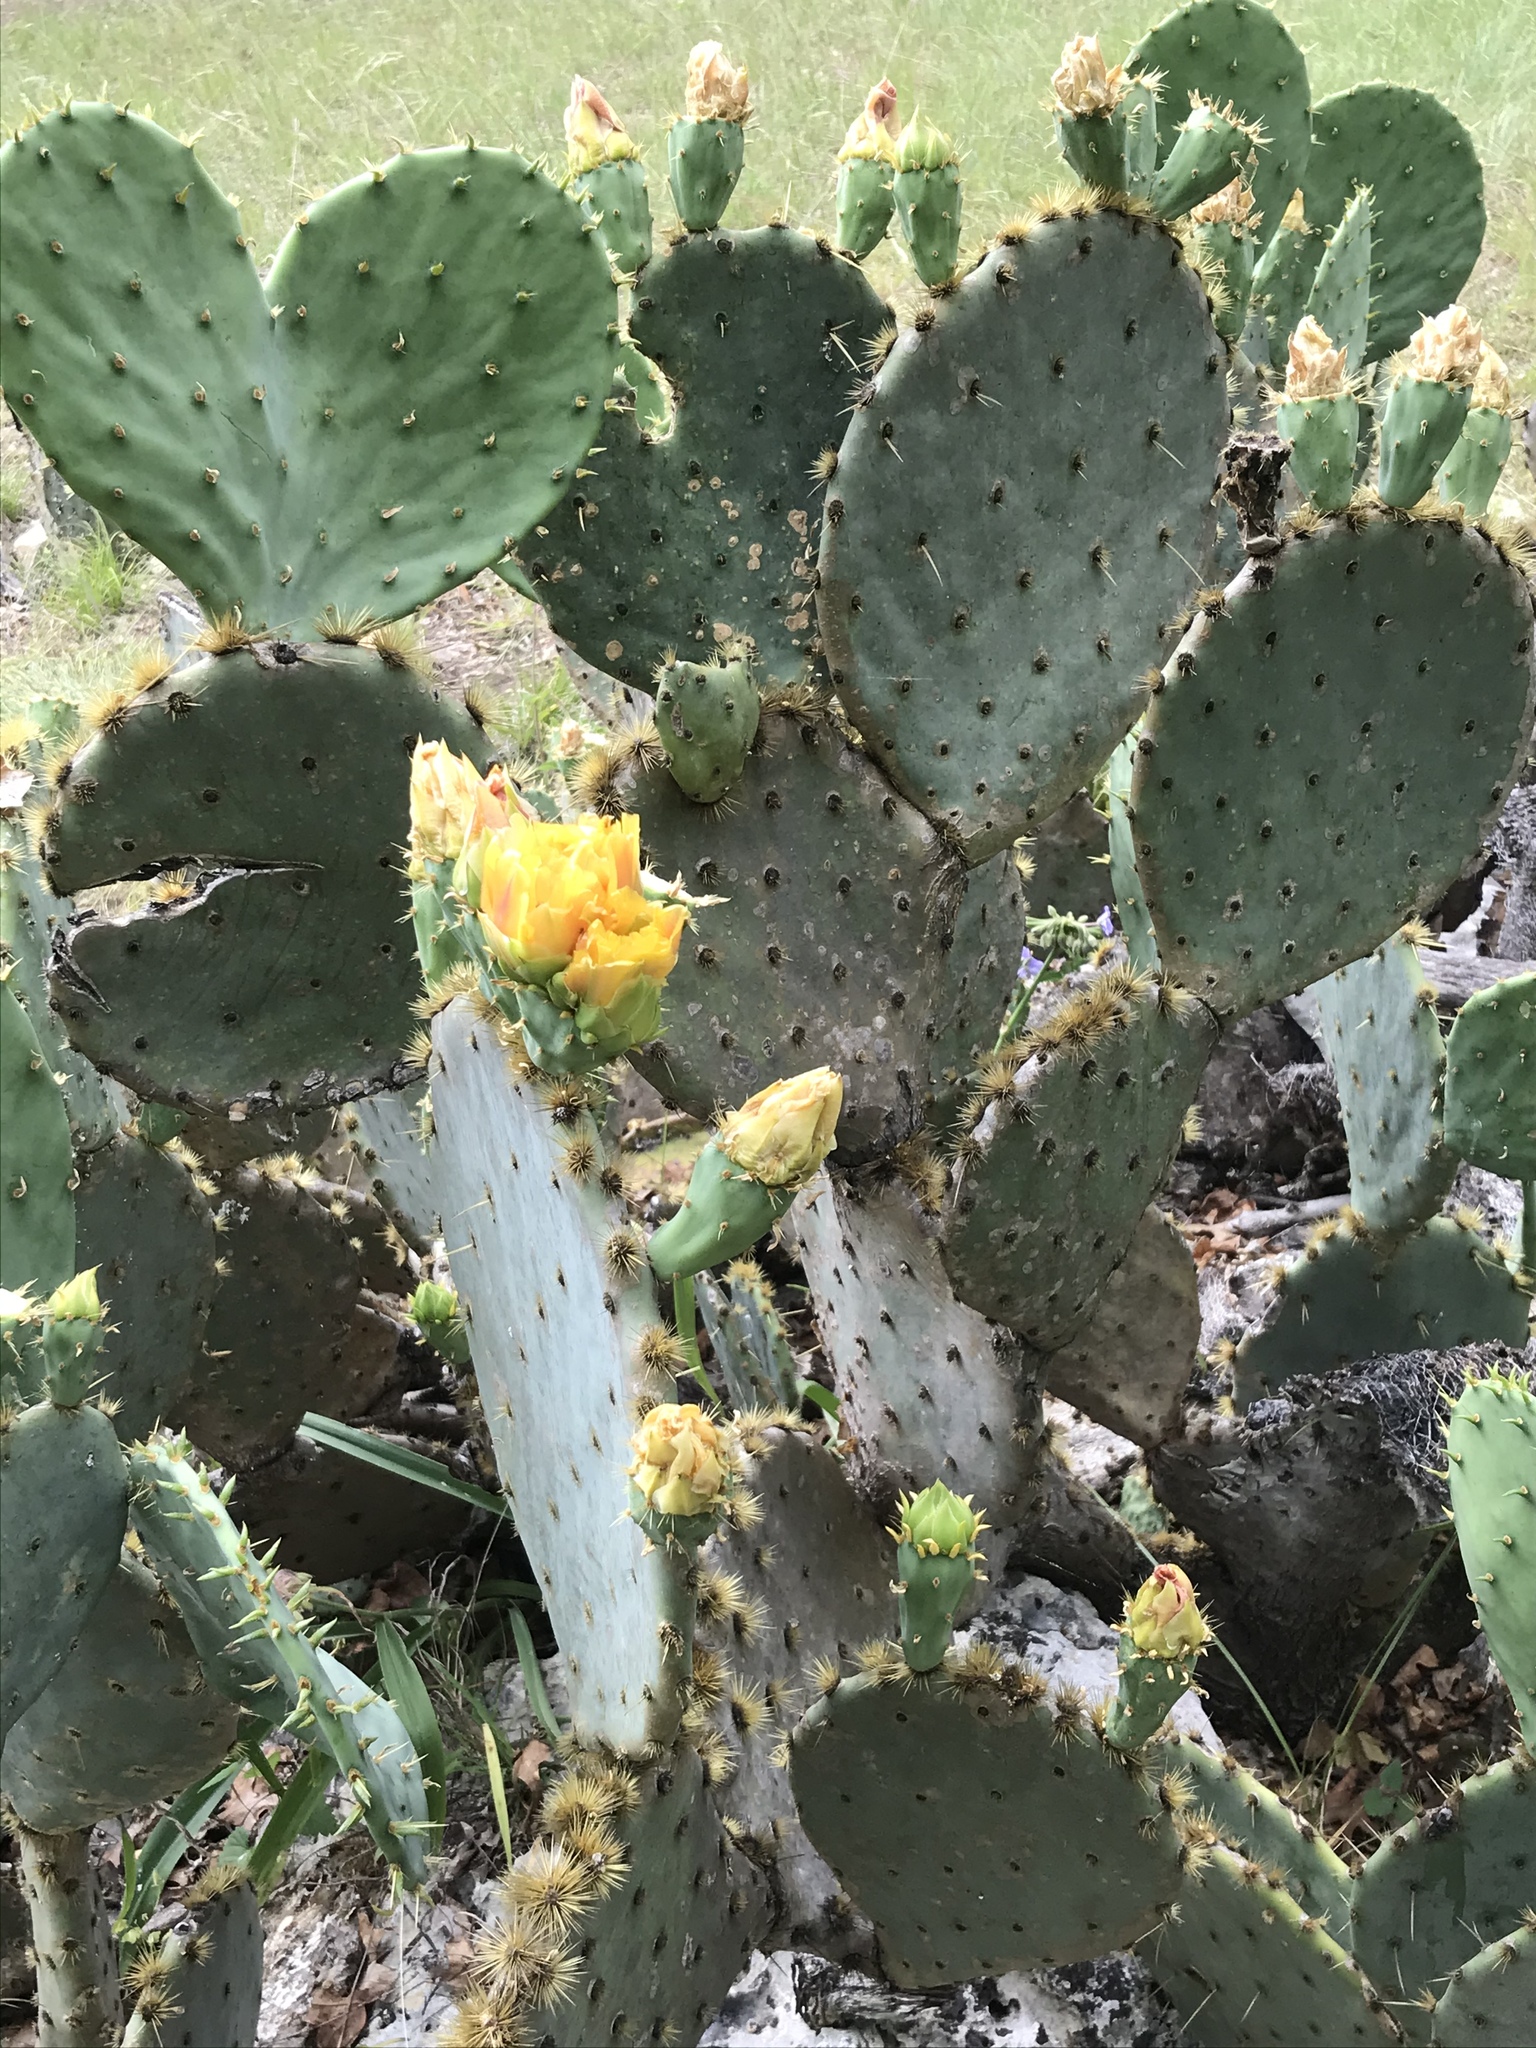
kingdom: Plantae
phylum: Tracheophyta
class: Magnoliopsida
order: Caryophyllales
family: Cactaceae
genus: Opuntia
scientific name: Opuntia engelmannii
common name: Cactus-apple
